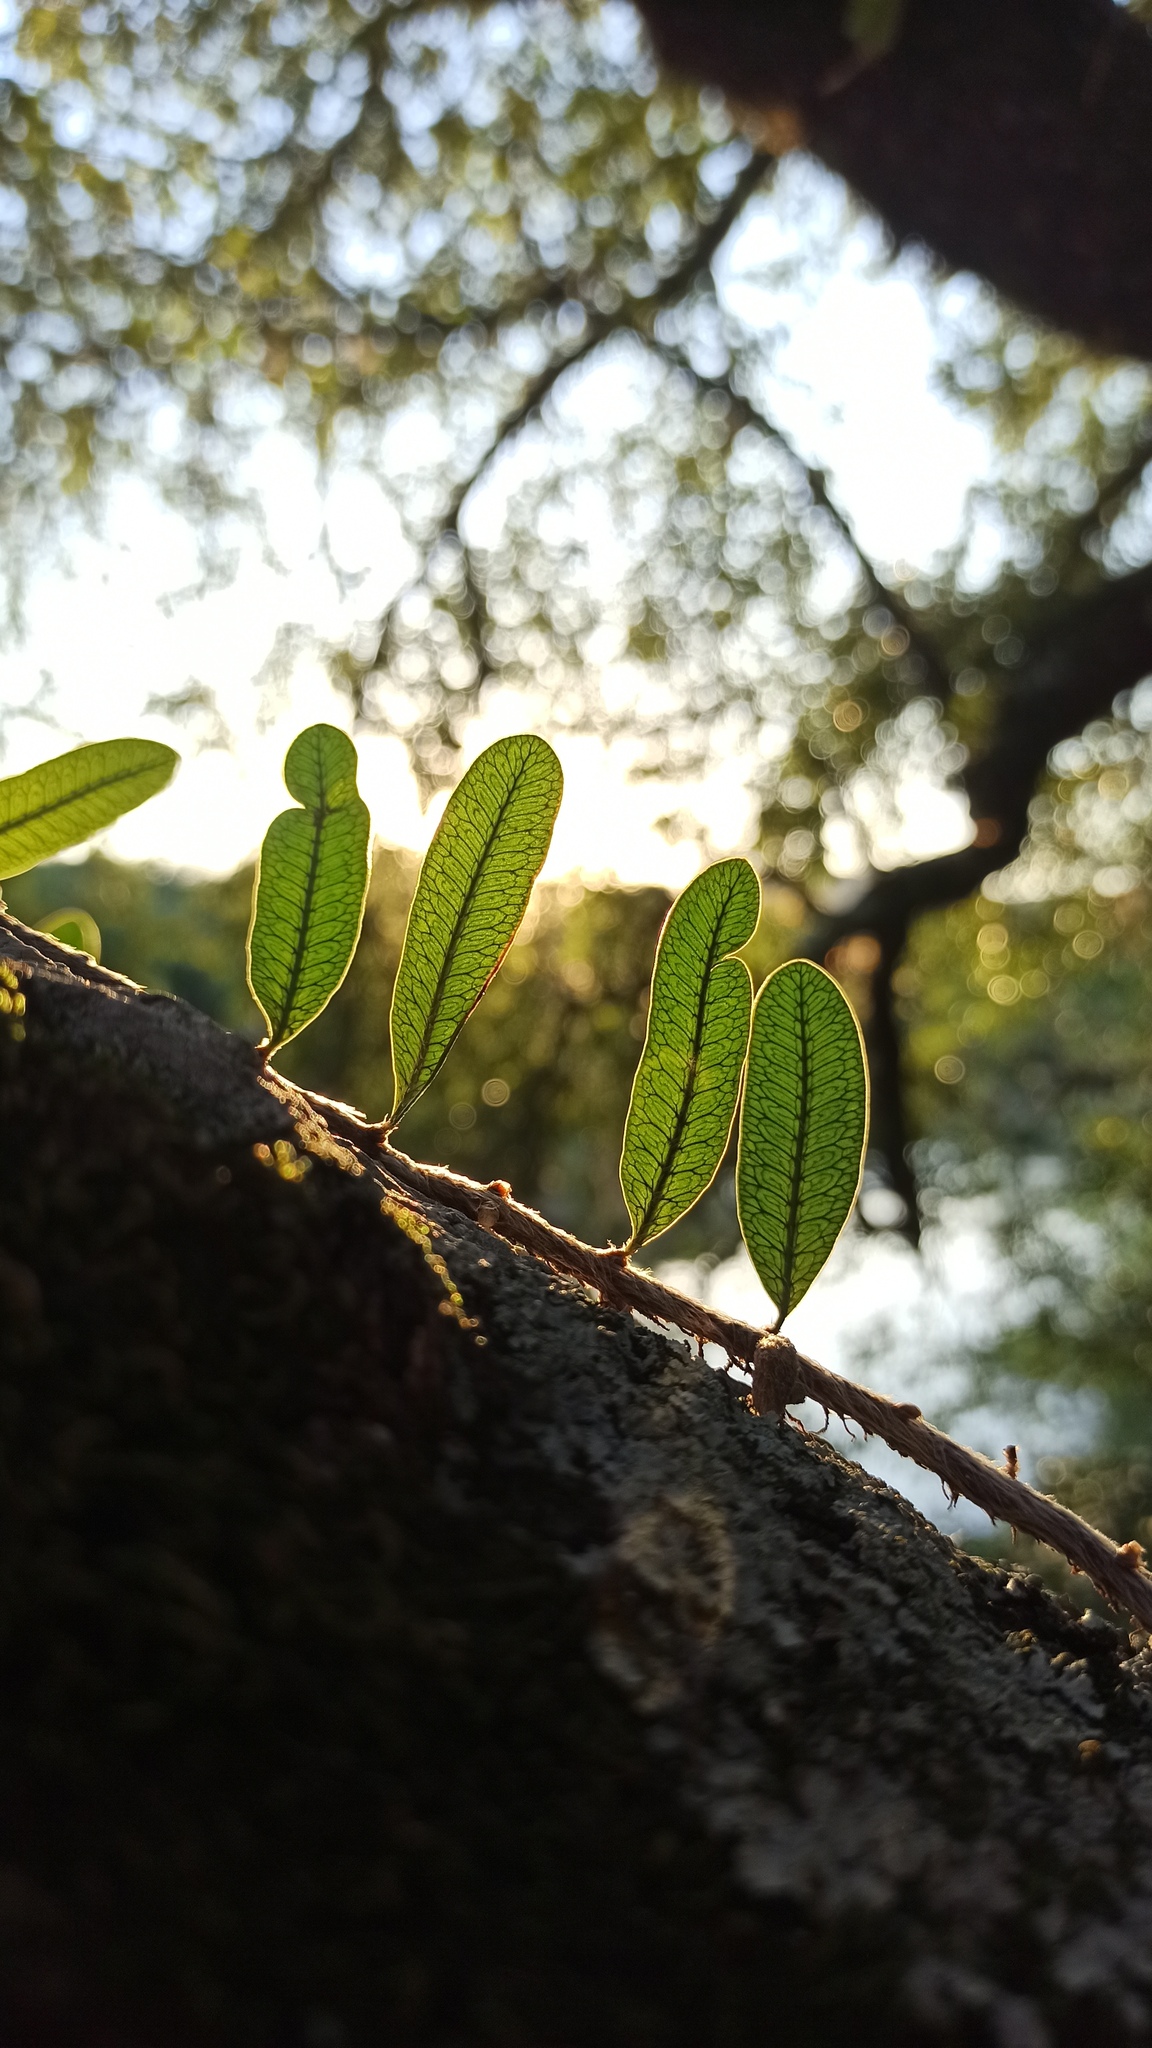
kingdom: Plantae
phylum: Tracheophyta
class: Polypodiopsida
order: Polypodiales
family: Polypodiaceae
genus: Microgramma
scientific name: Microgramma squamulosa
